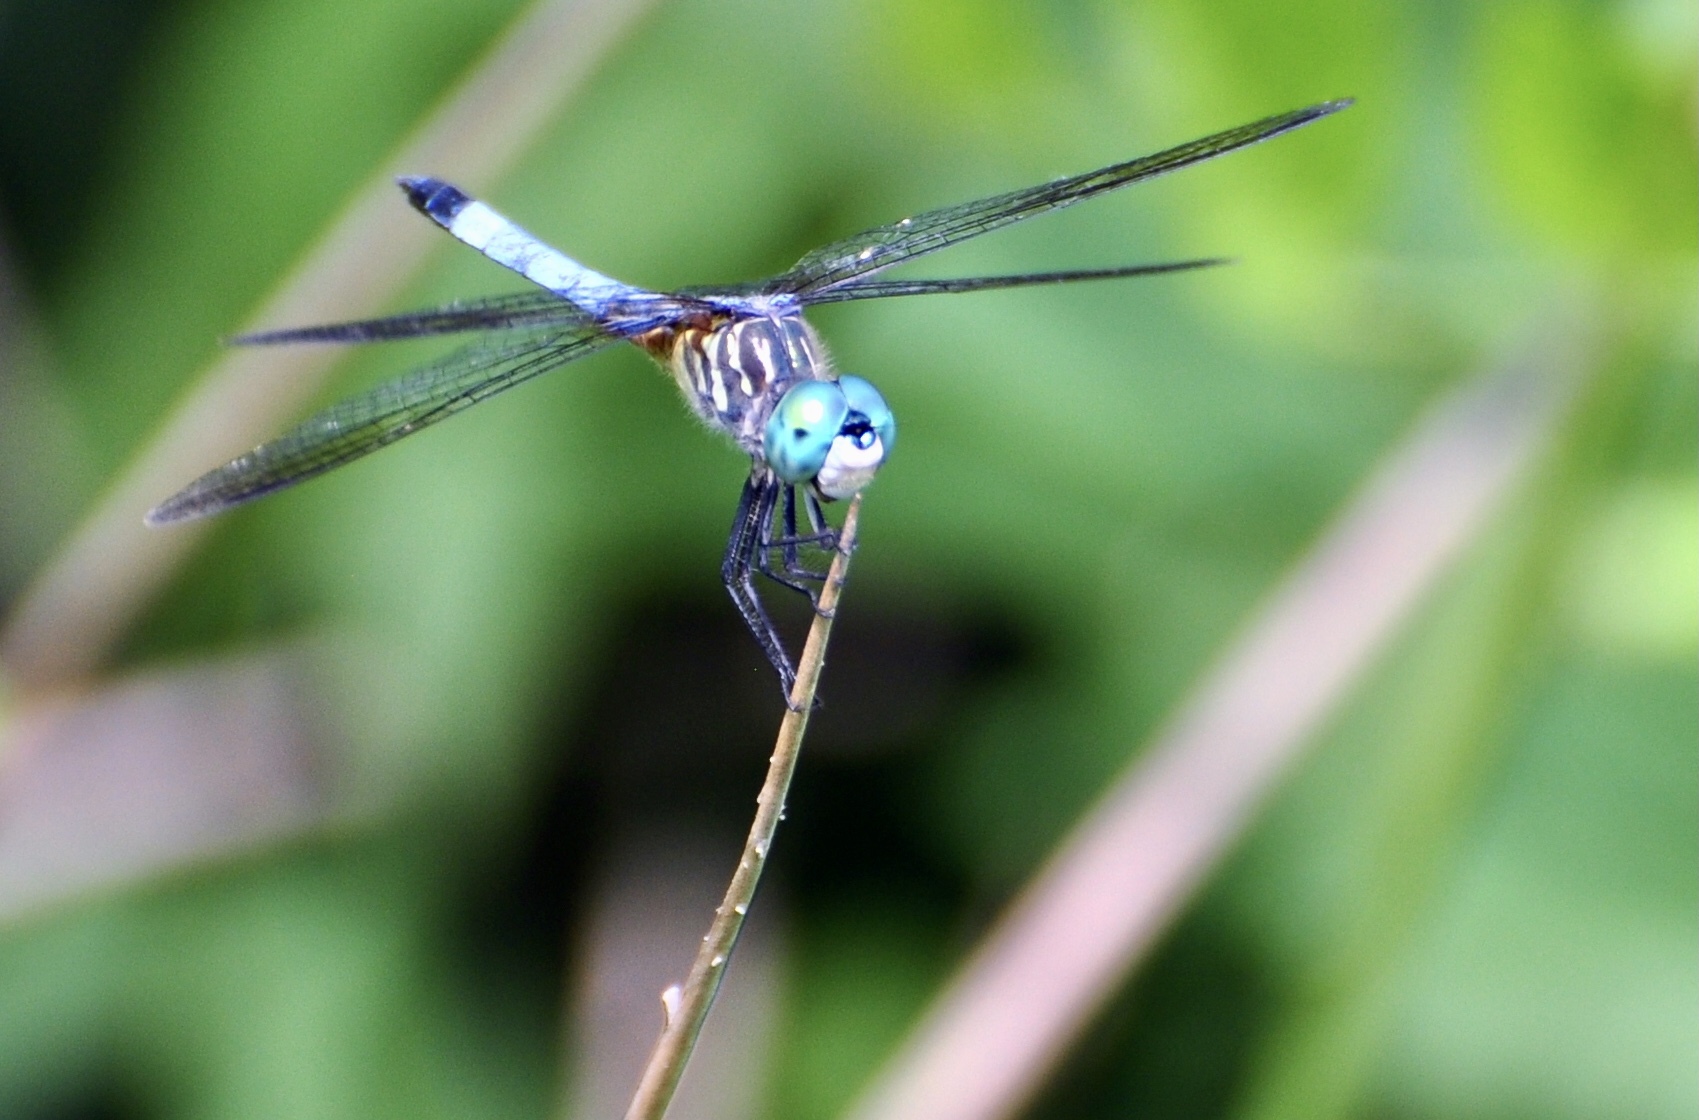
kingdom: Animalia
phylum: Arthropoda
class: Insecta
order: Odonata
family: Libellulidae
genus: Pachydiplax
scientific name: Pachydiplax longipennis
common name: Blue dasher
